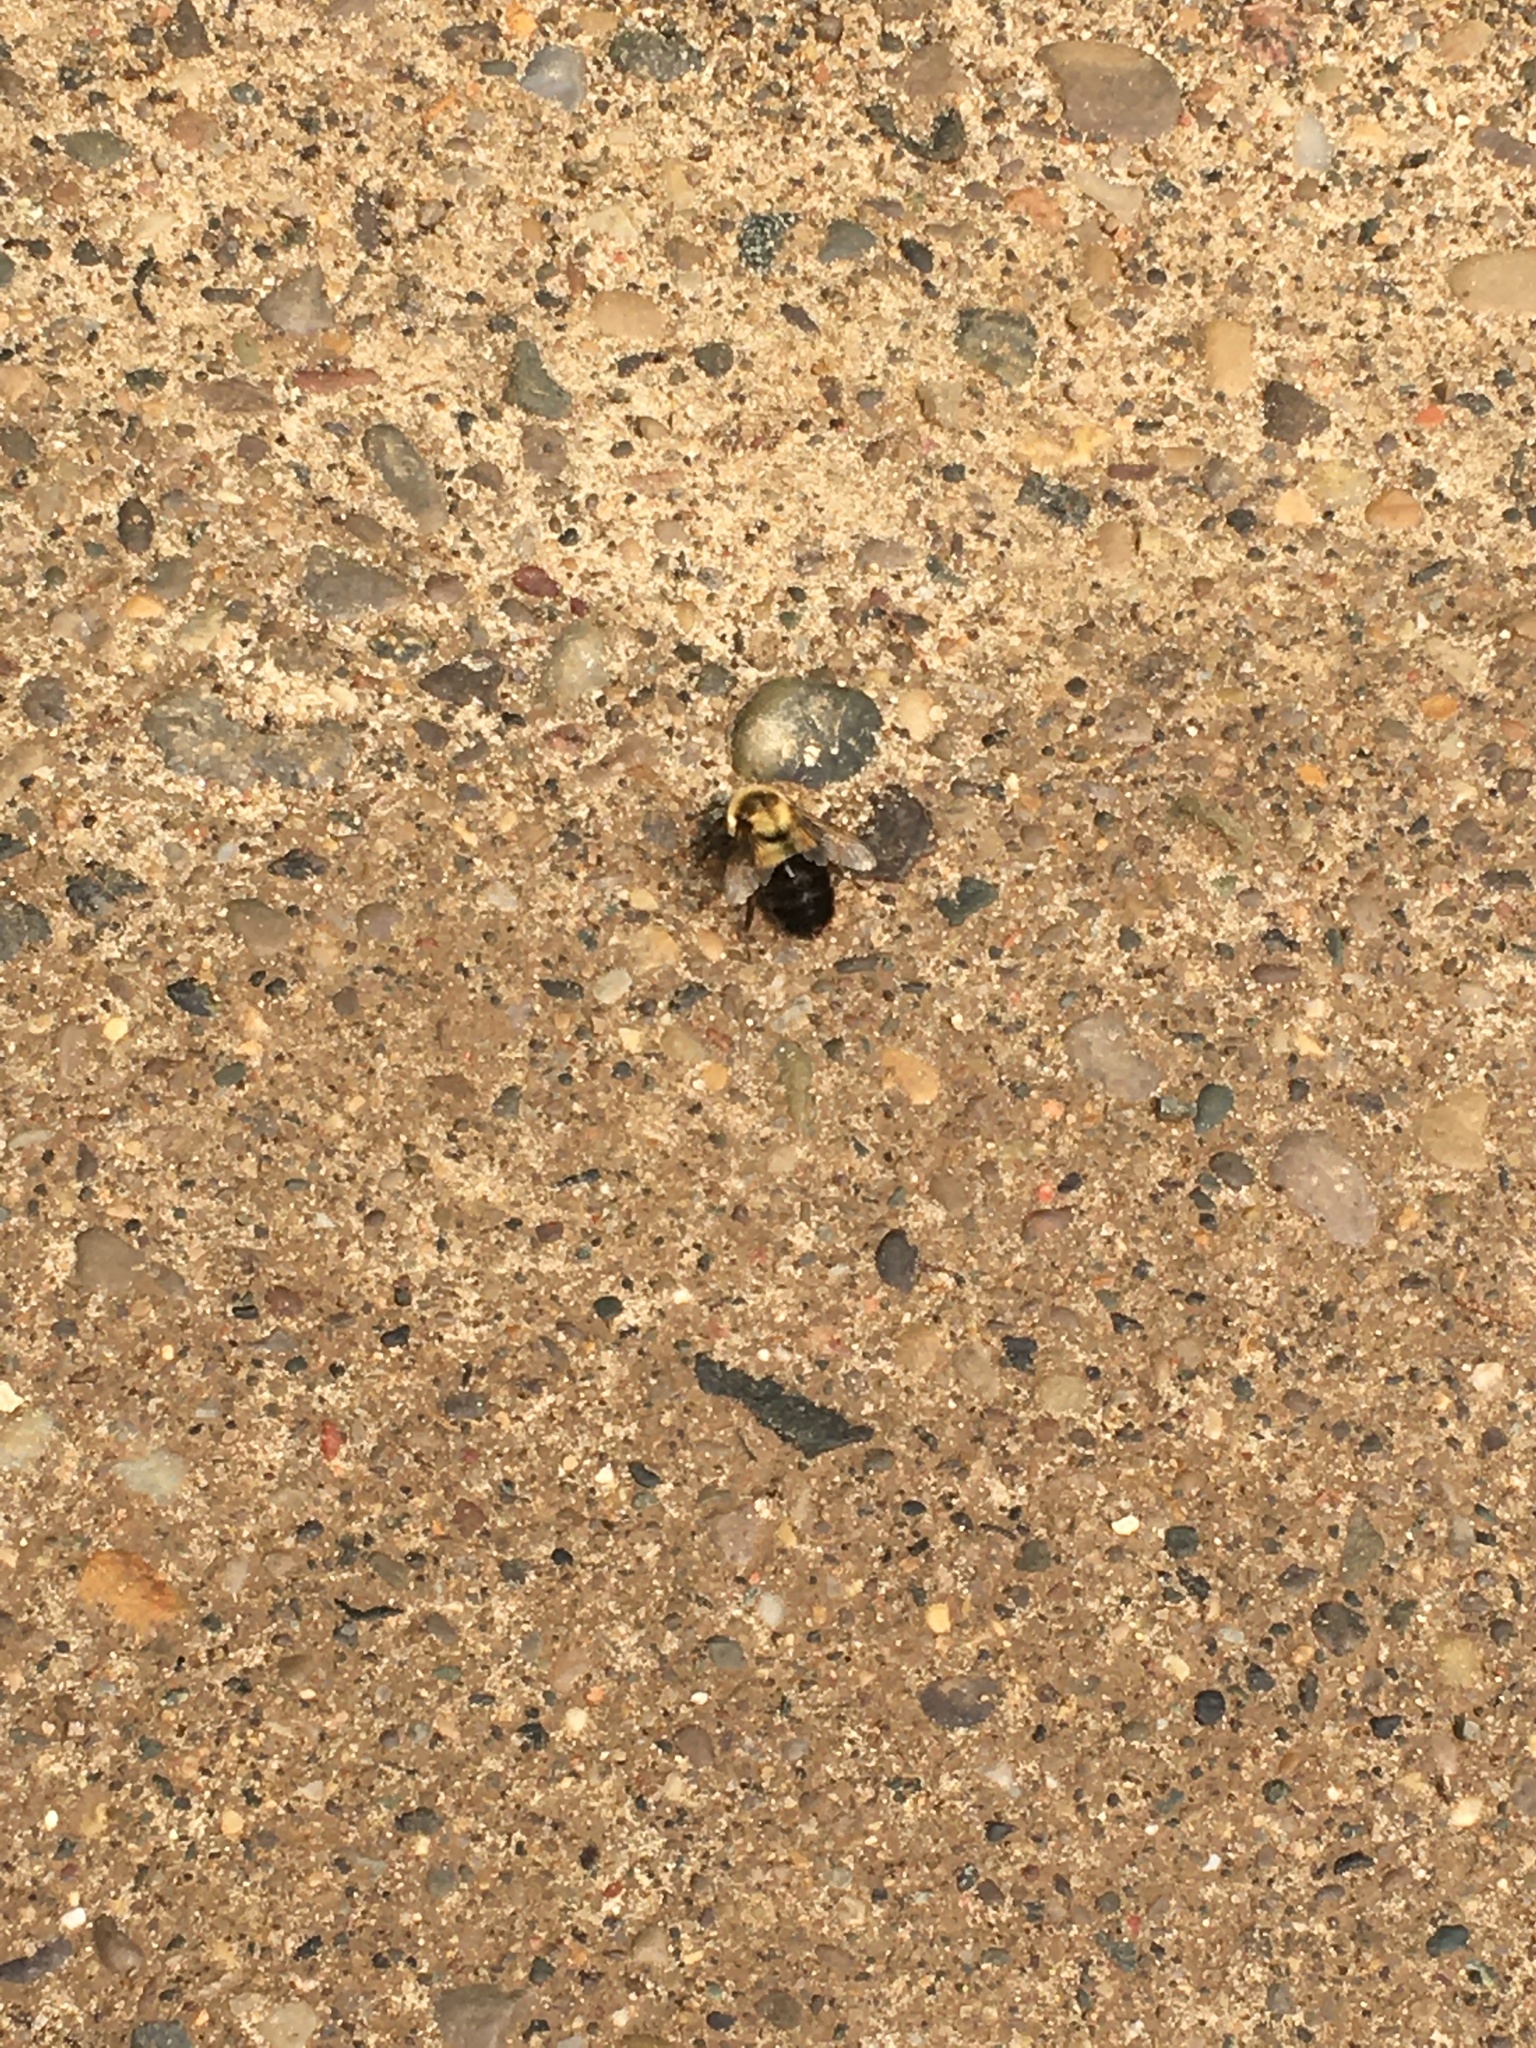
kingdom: Animalia
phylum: Arthropoda
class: Insecta
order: Hymenoptera
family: Apidae
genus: Bombus
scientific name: Bombus impatiens
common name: Common eastern bumble bee
